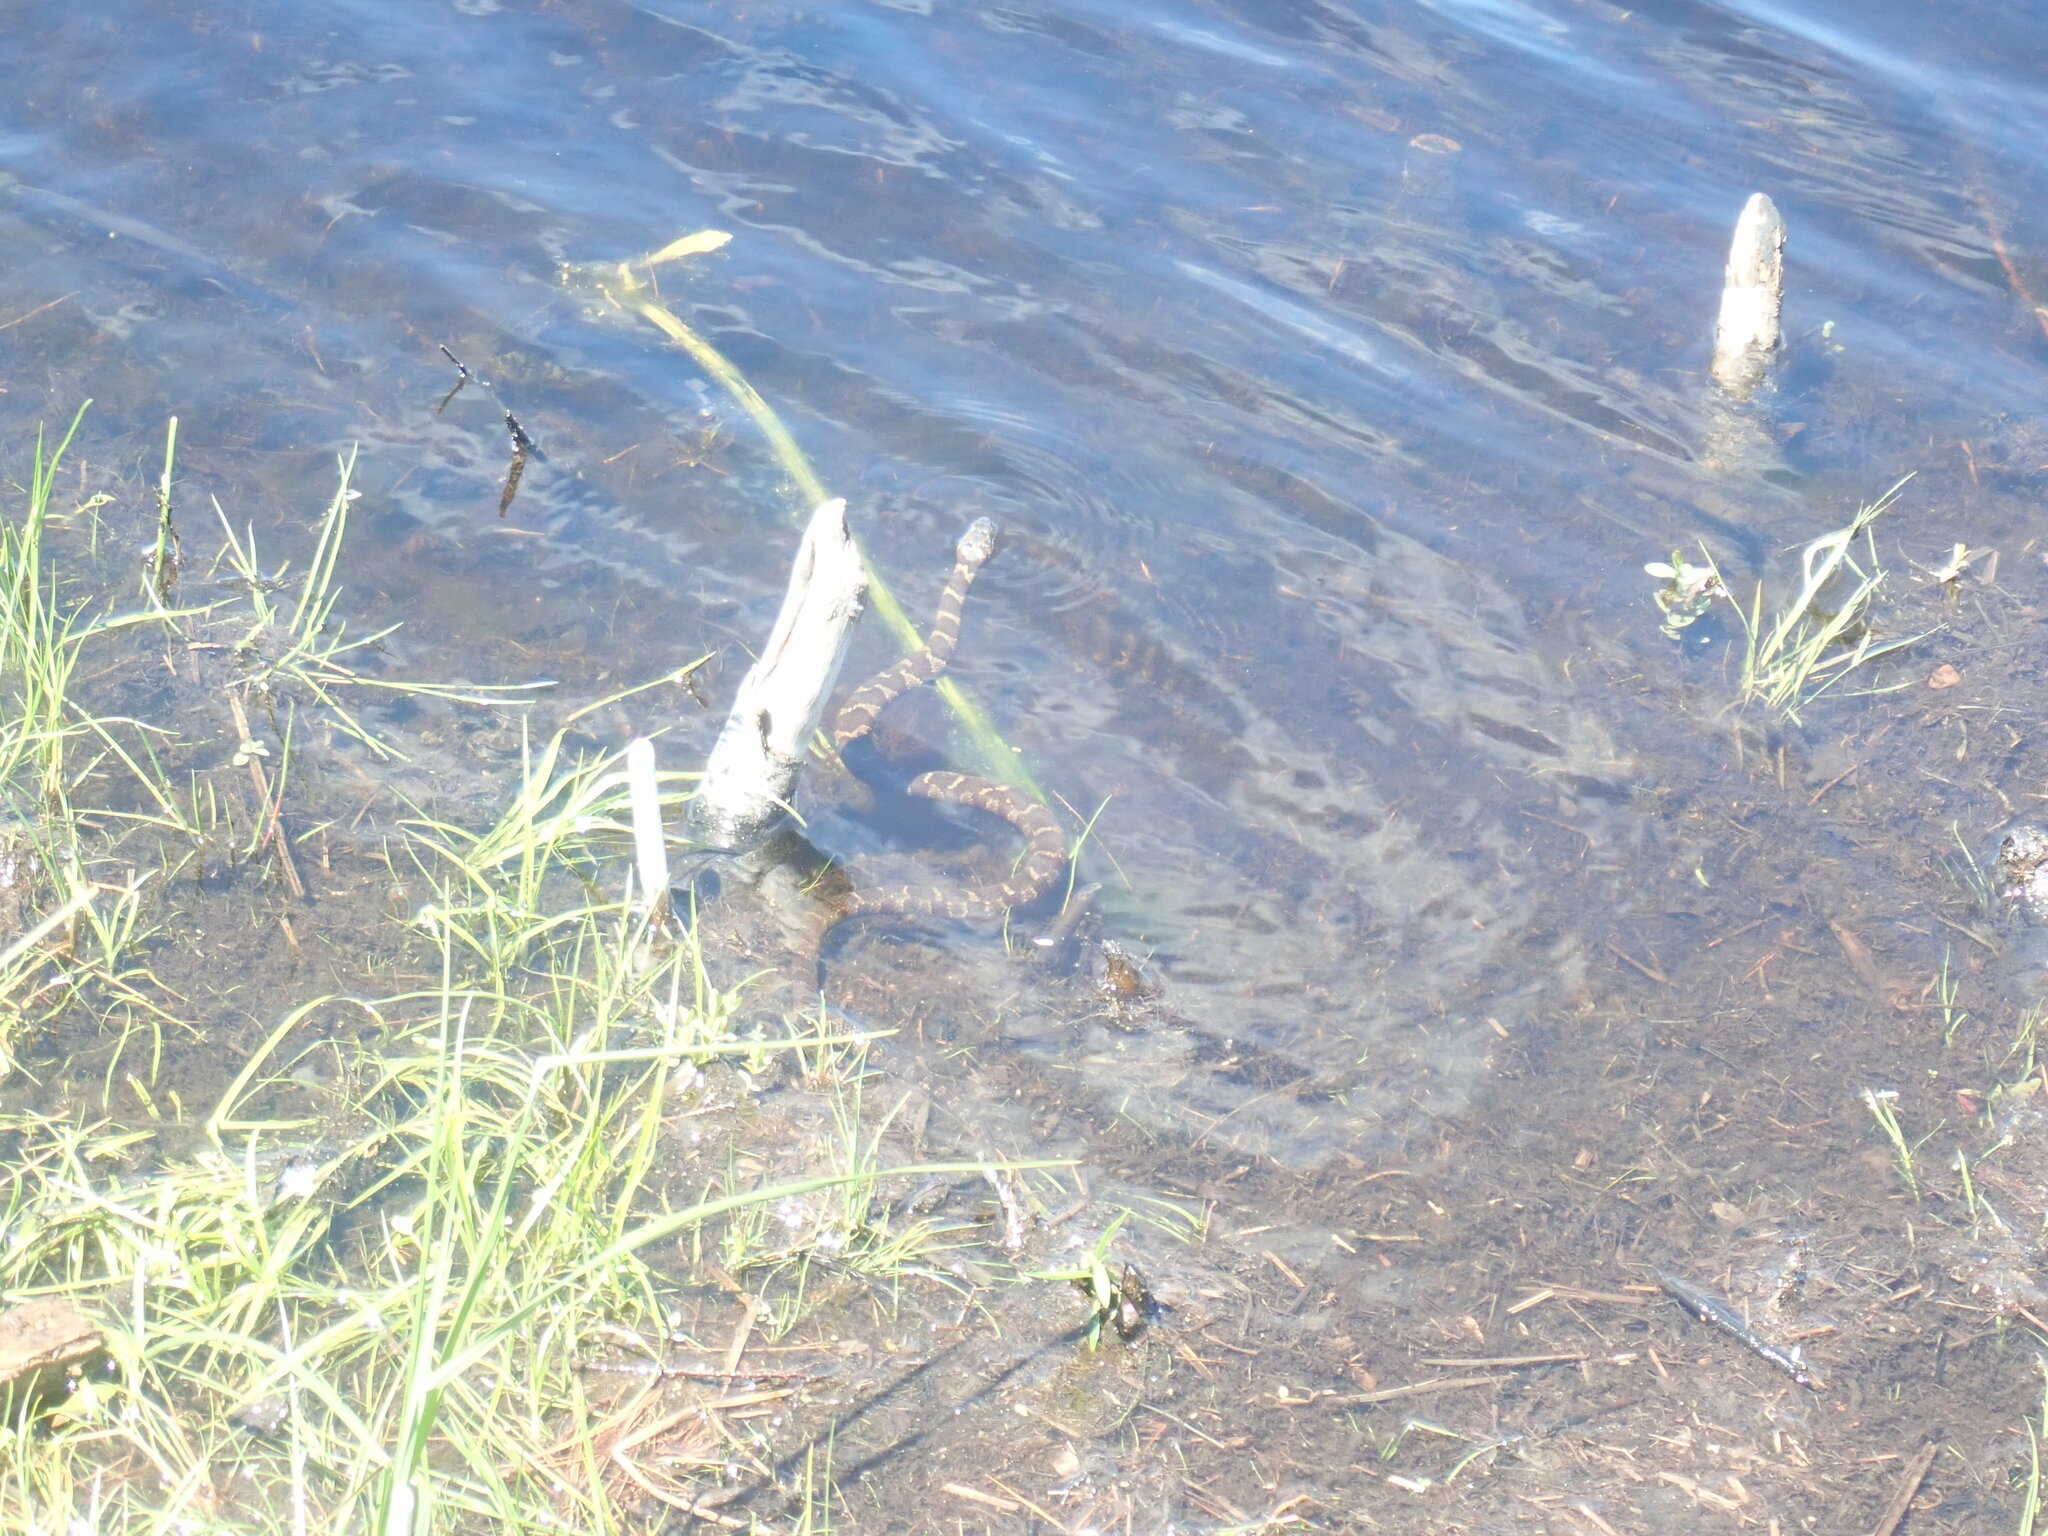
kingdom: Animalia
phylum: Chordata
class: Squamata
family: Colubridae
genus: Nerodia
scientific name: Nerodia sipedon
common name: Northern water snake
